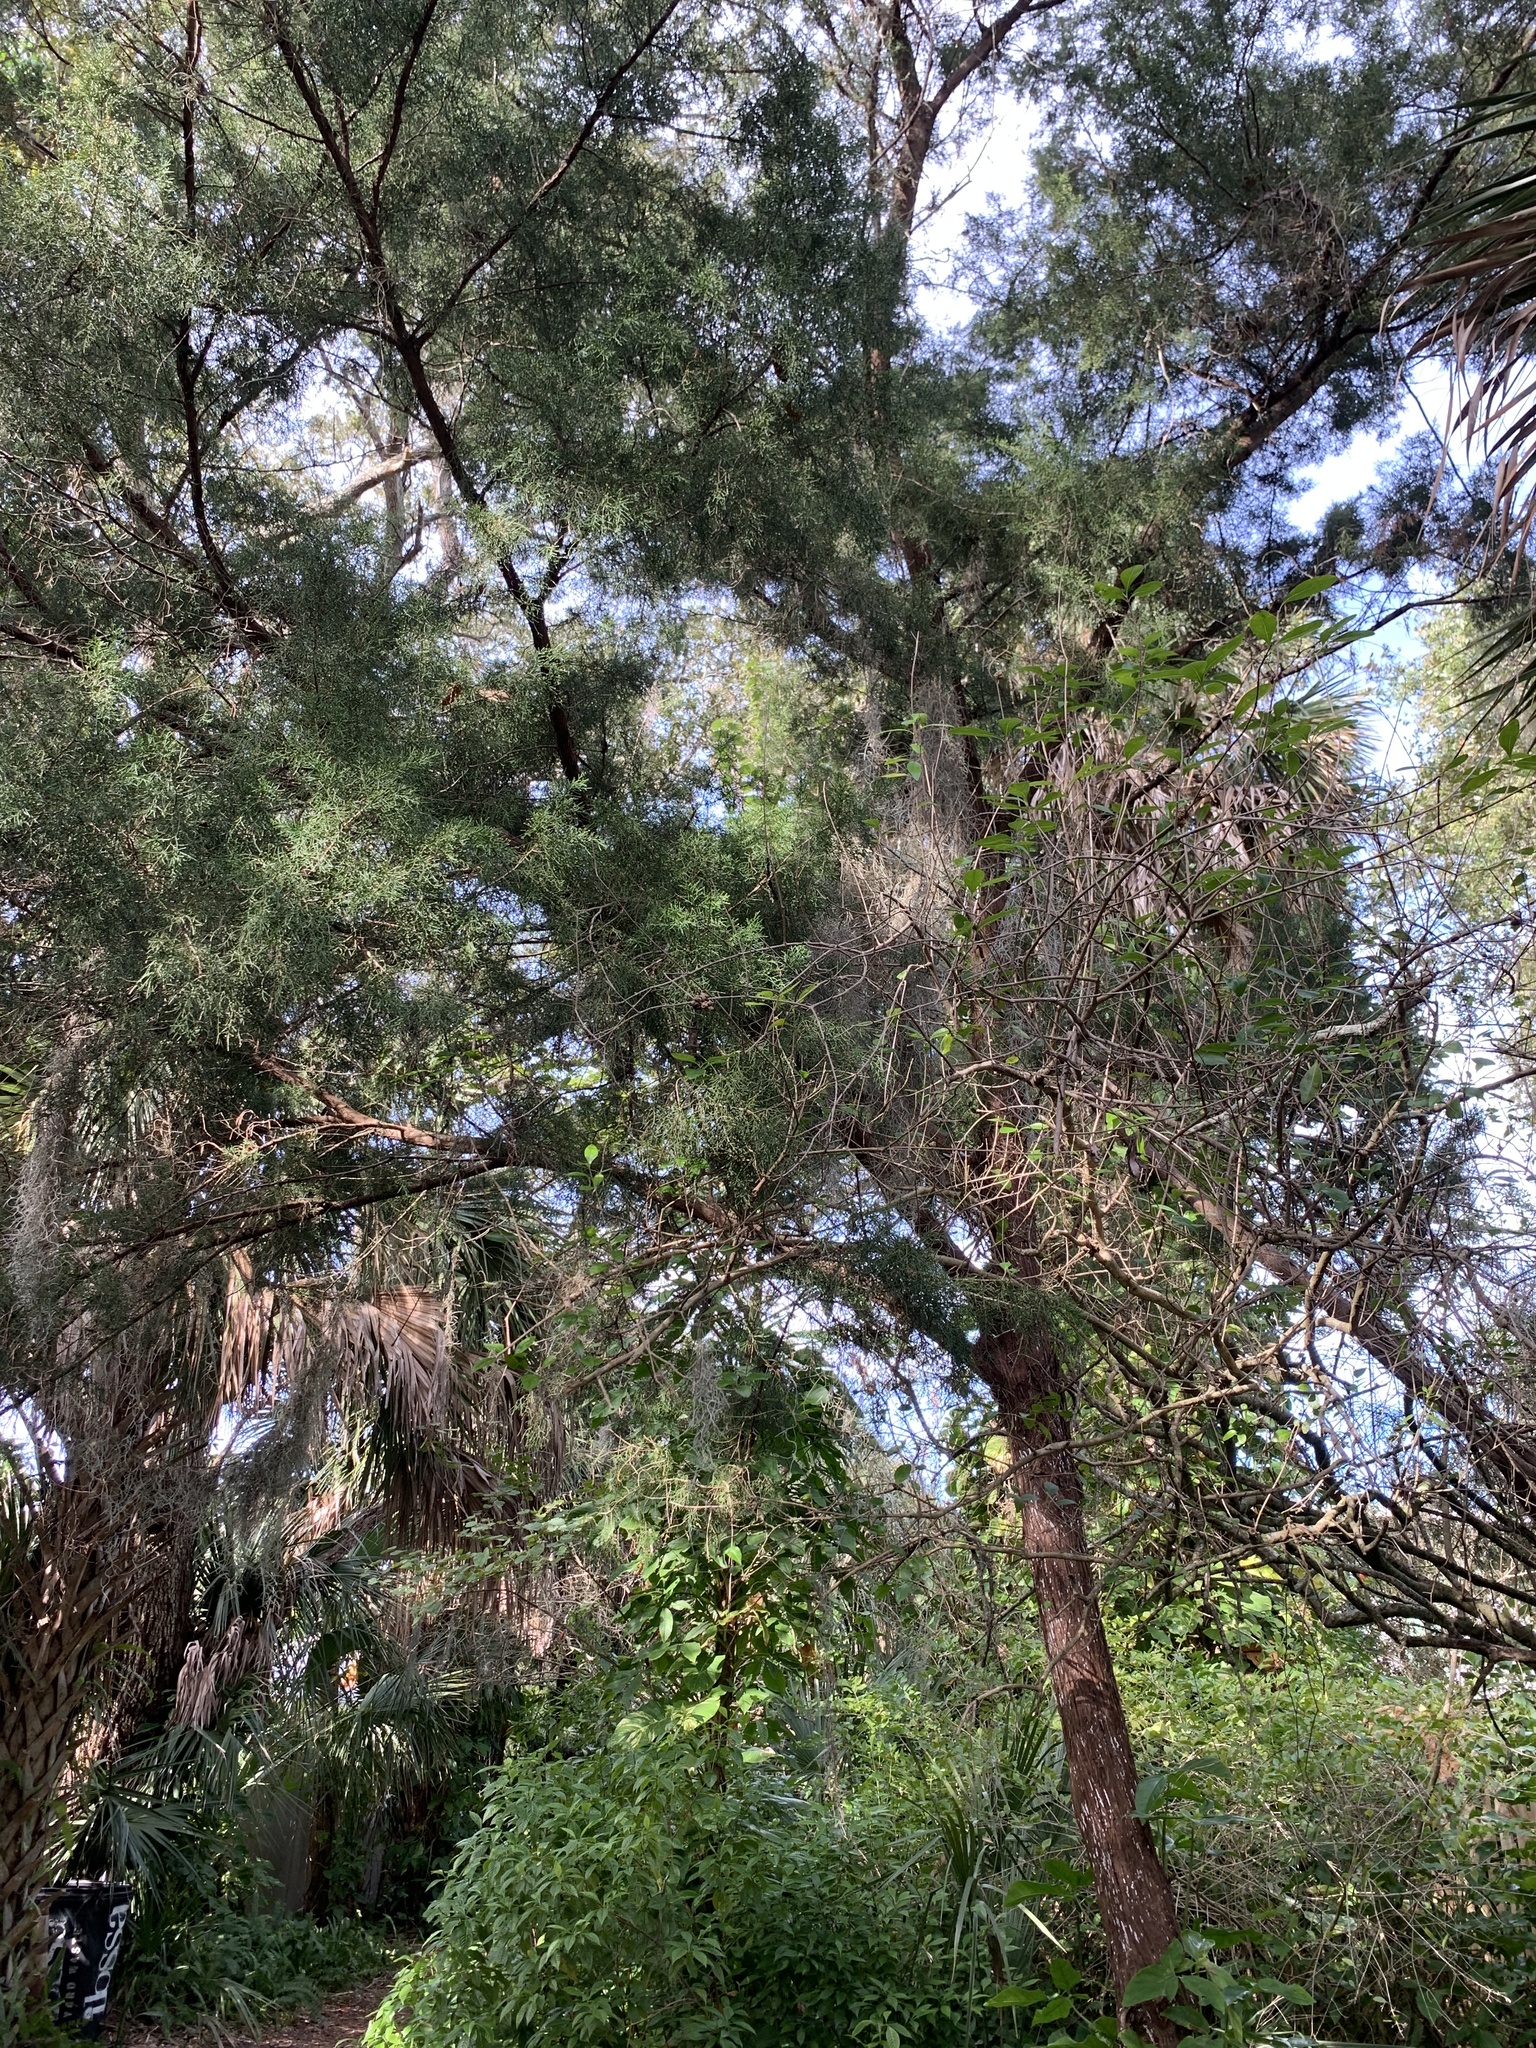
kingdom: Plantae
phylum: Tracheophyta
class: Pinopsida
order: Pinales
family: Cupressaceae
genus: Juniperus
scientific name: Juniperus virginiana
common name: Red juniper
